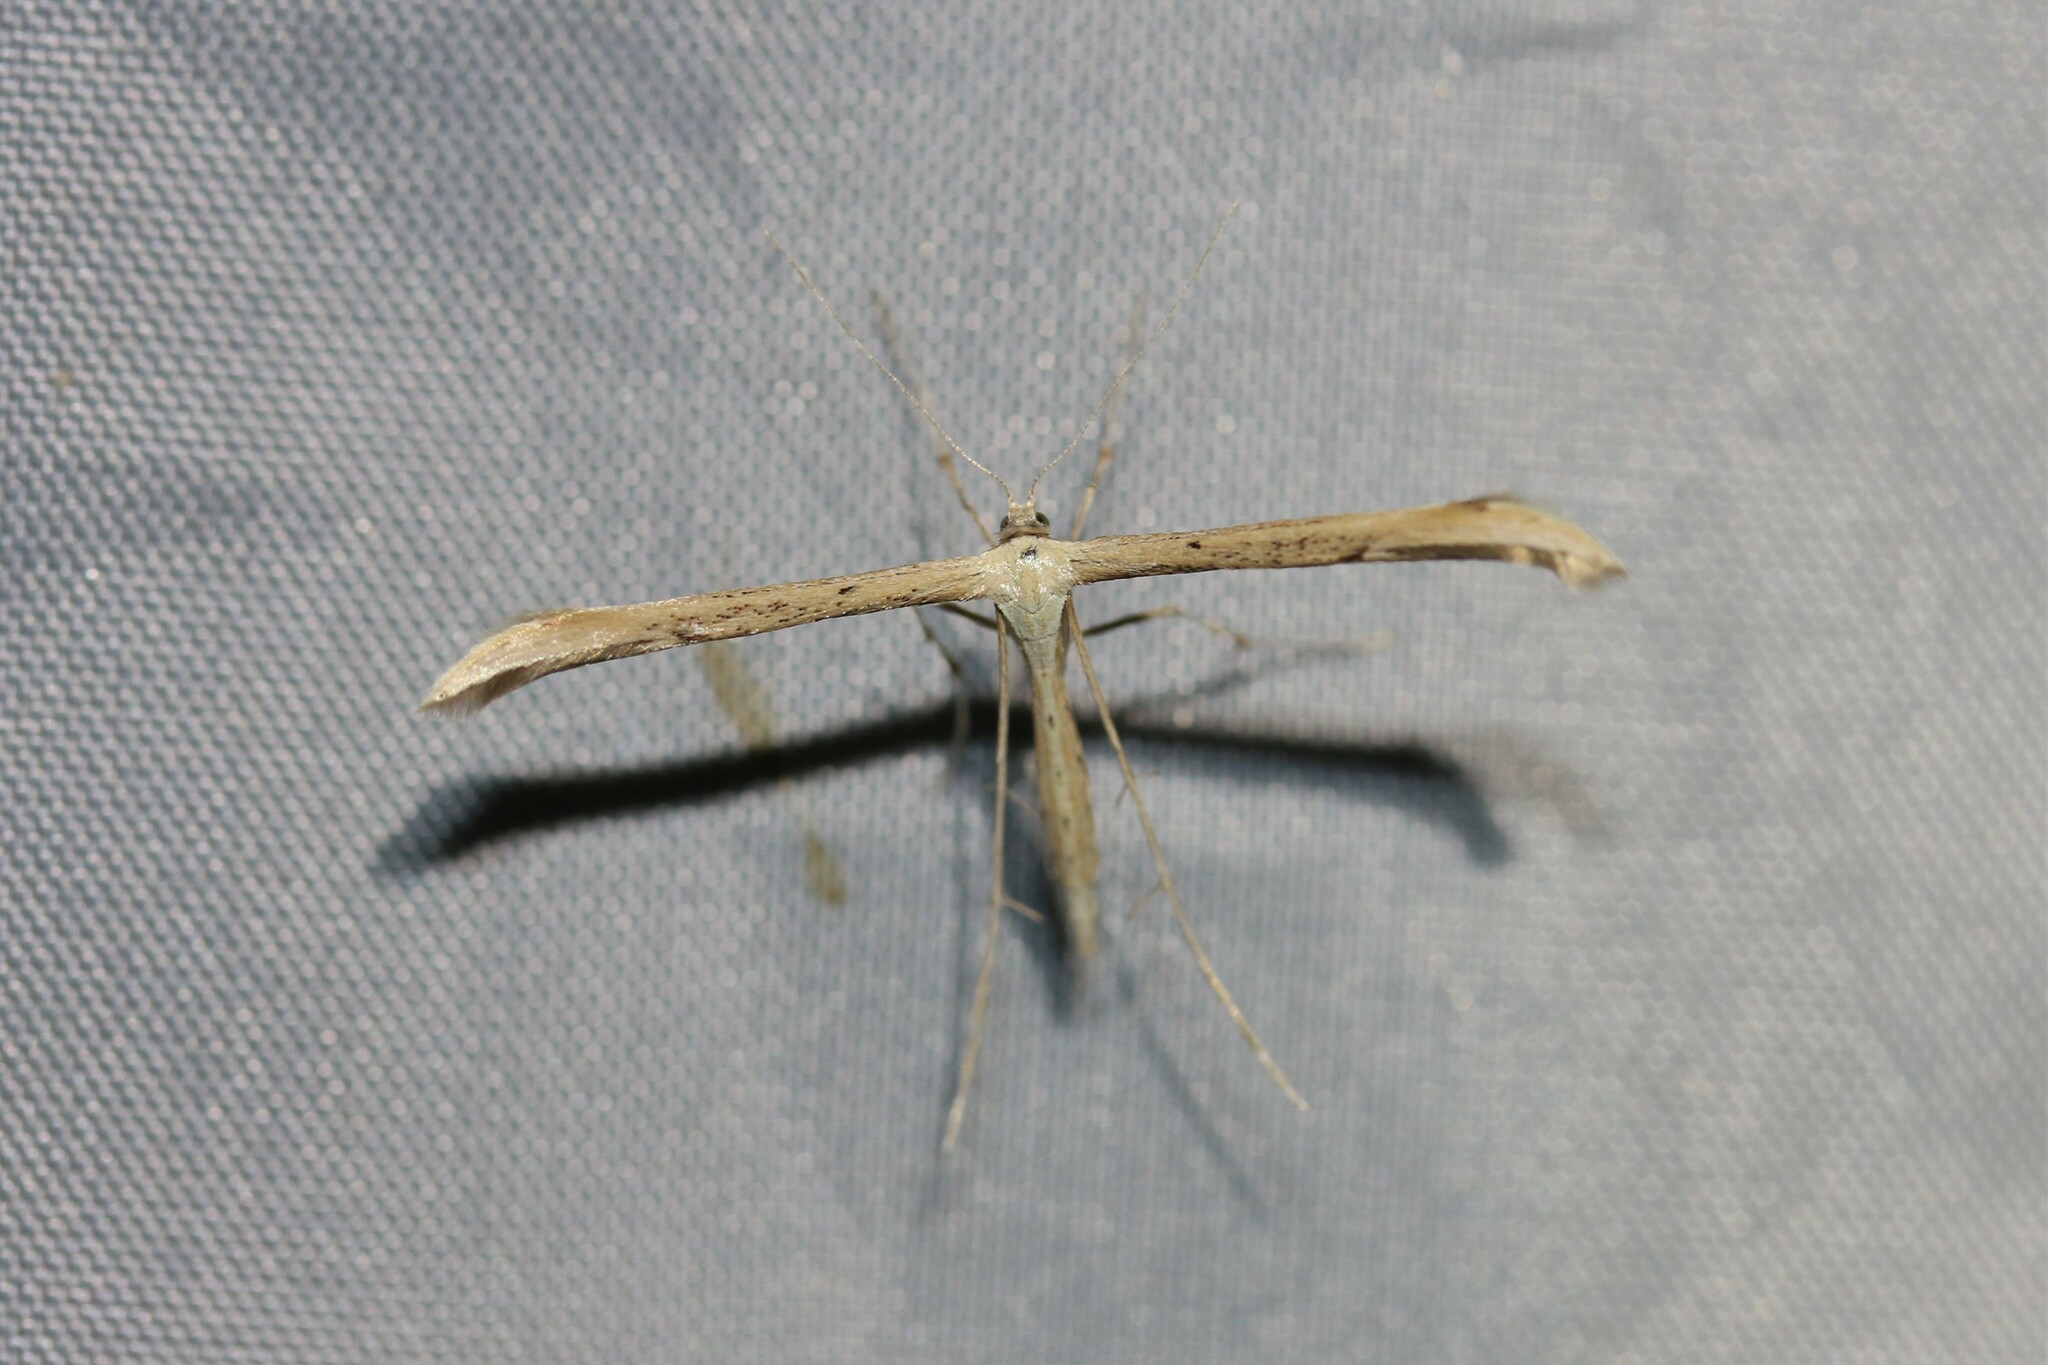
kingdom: Animalia
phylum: Arthropoda
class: Insecta
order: Lepidoptera
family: Pterophoridae
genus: Emmelina
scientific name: Emmelina monodactyla
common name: Common plume
